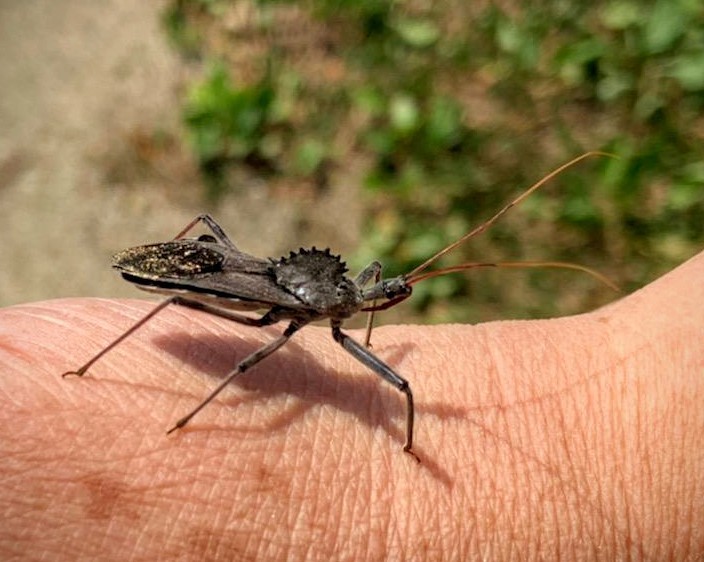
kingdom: Animalia
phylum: Arthropoda
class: Insecta
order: Hemiptera
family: Reduviidae
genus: Arilus
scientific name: Arilus cristatus
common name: North american wheel bug
